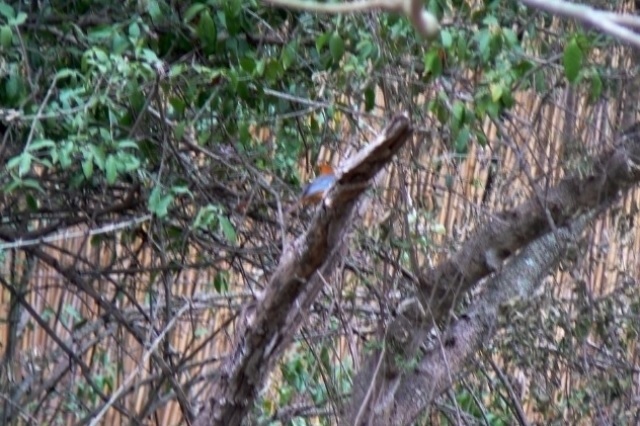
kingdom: Animalia
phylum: Chordata
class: Aves
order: Passeriformes
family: Muscicapidae
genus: Cossypha
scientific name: Cossypha natalensis
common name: Red-capped robin-chat
